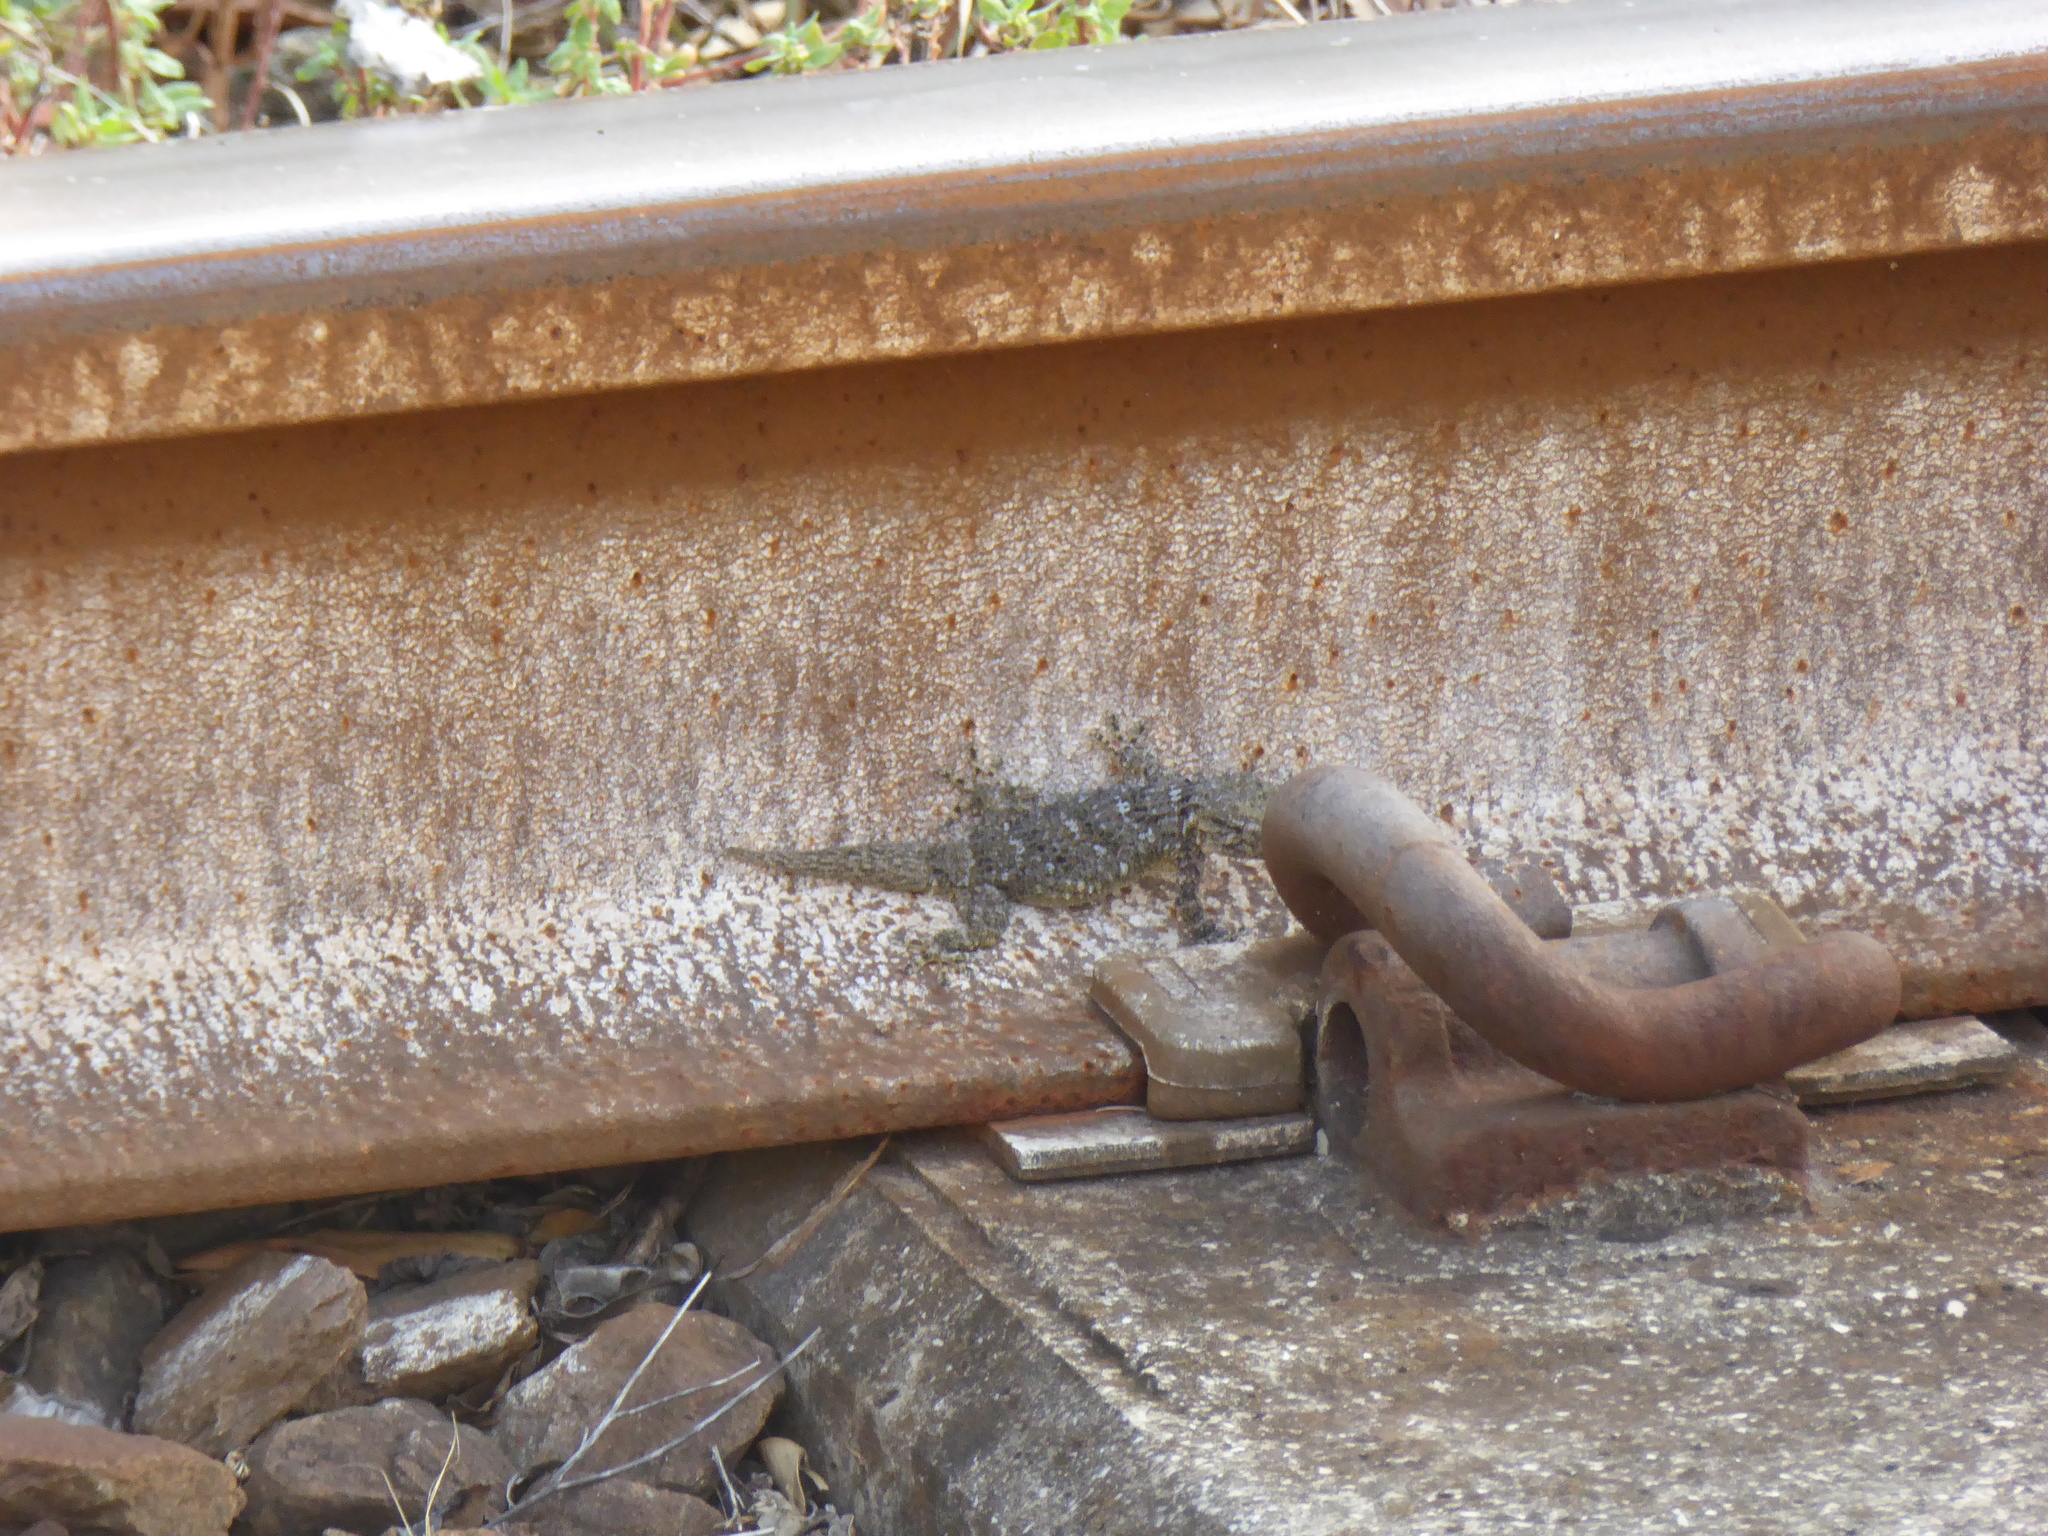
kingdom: Animalia
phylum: Chordata
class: Squamata
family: Phyllodactylidae
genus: Tarentola
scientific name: Tarentola mauritanica
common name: Moorish gecko
